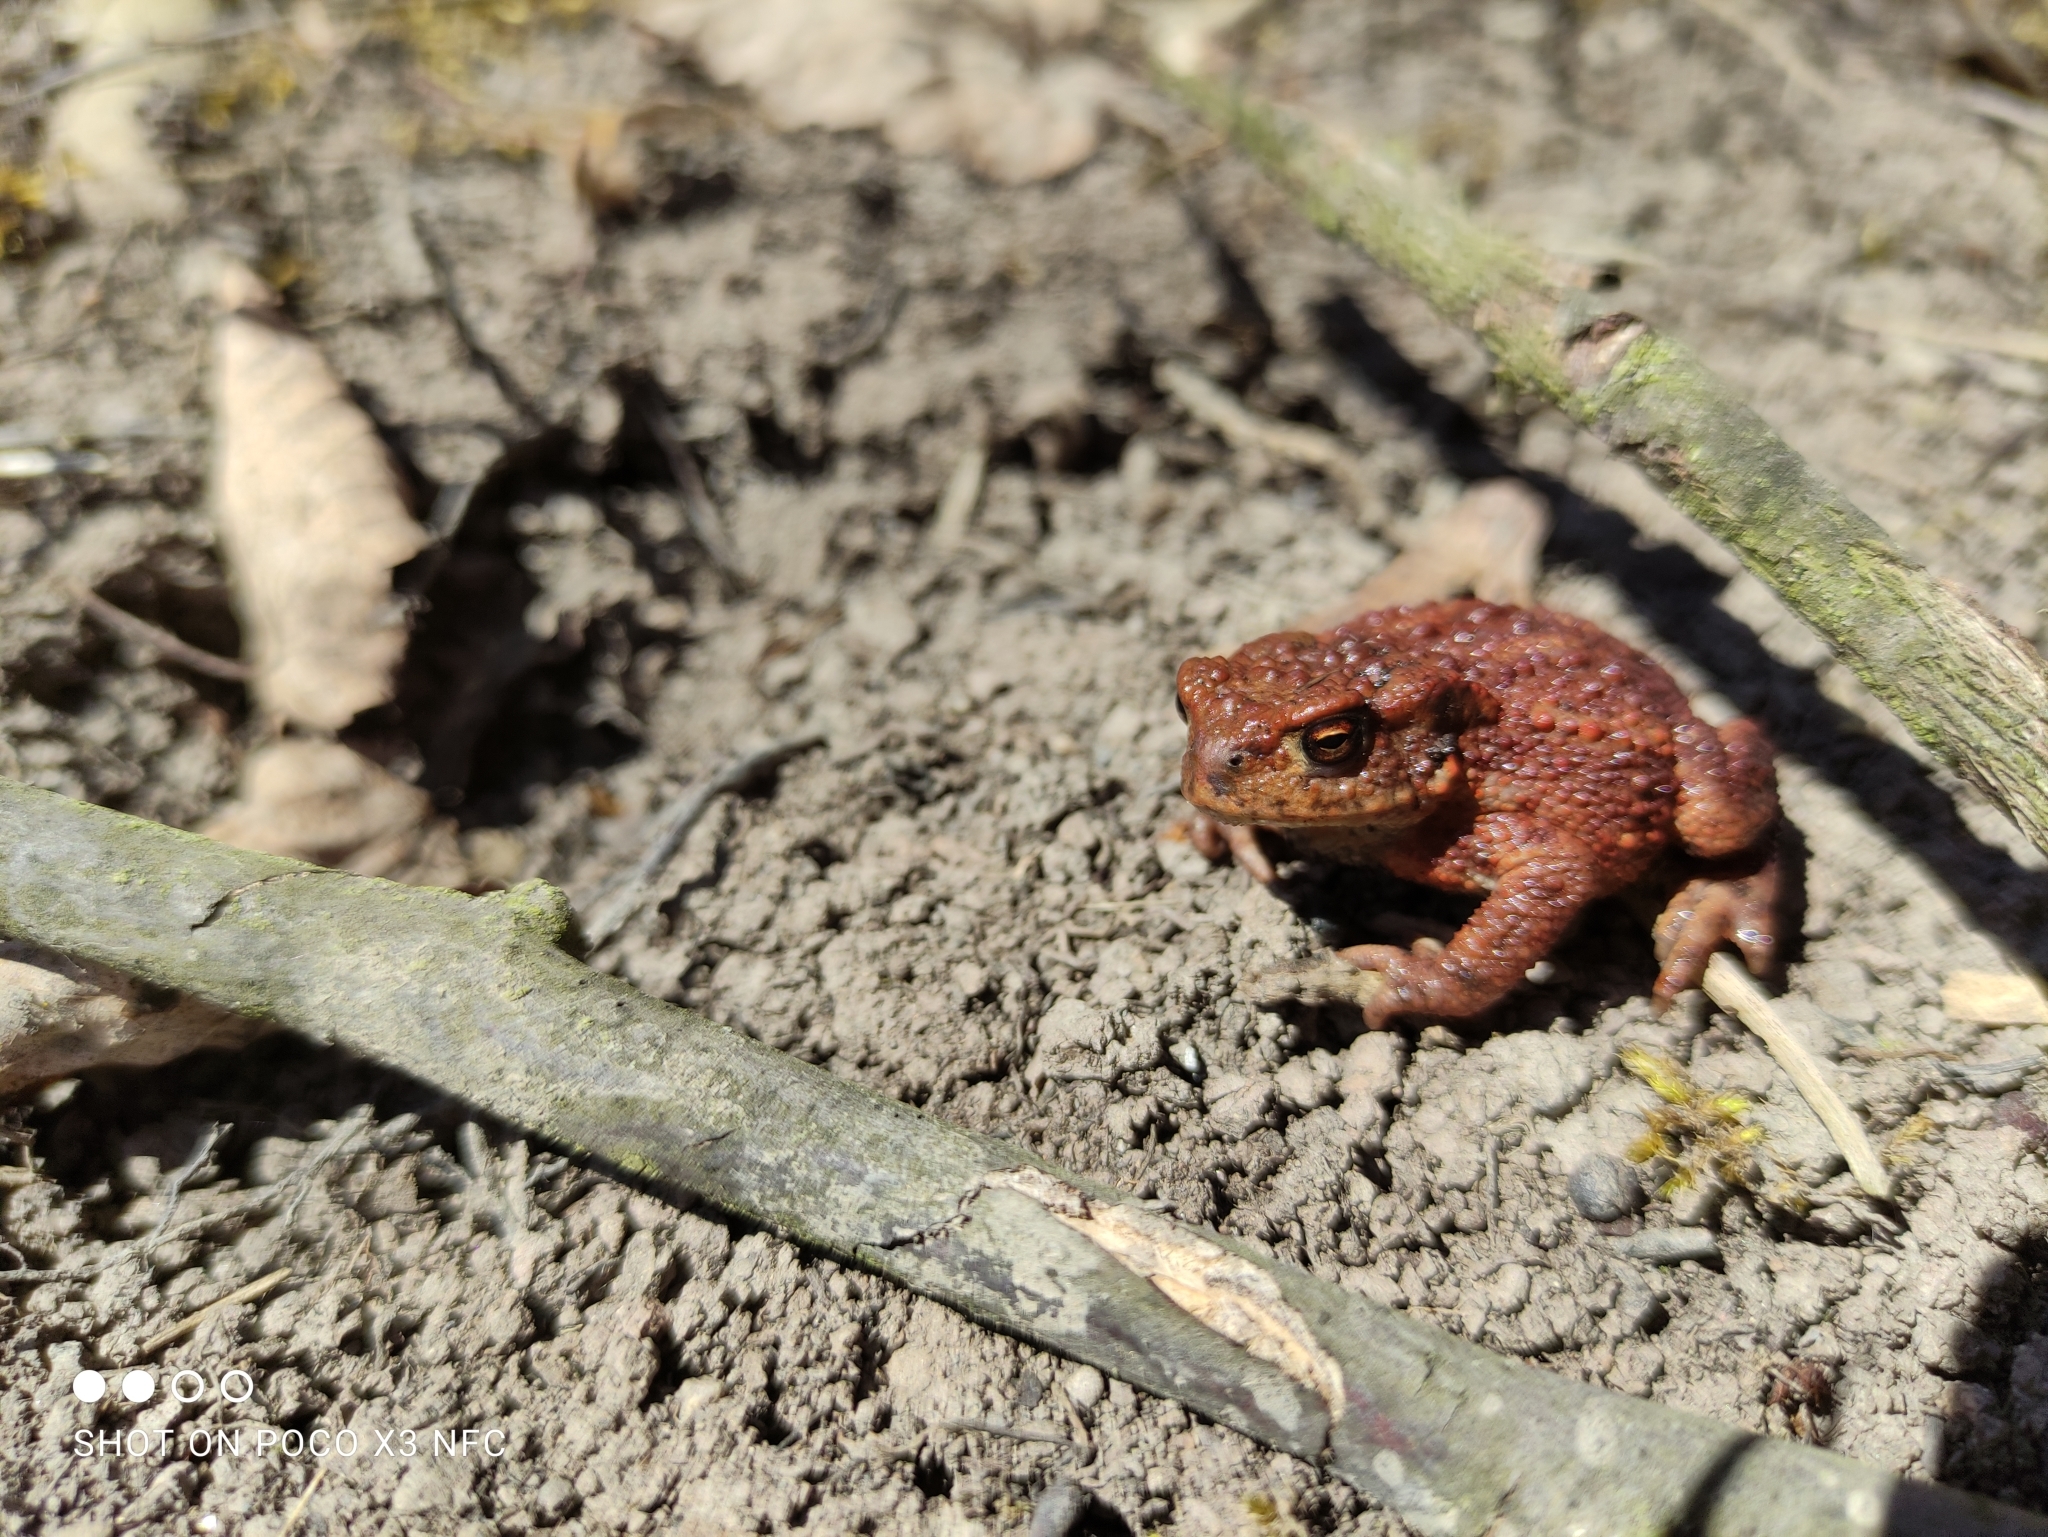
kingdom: Animalia
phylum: Chordata
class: Amphibia
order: Anura
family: Bufonidae
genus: Bufo
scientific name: Bufo bufo
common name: Common toad
